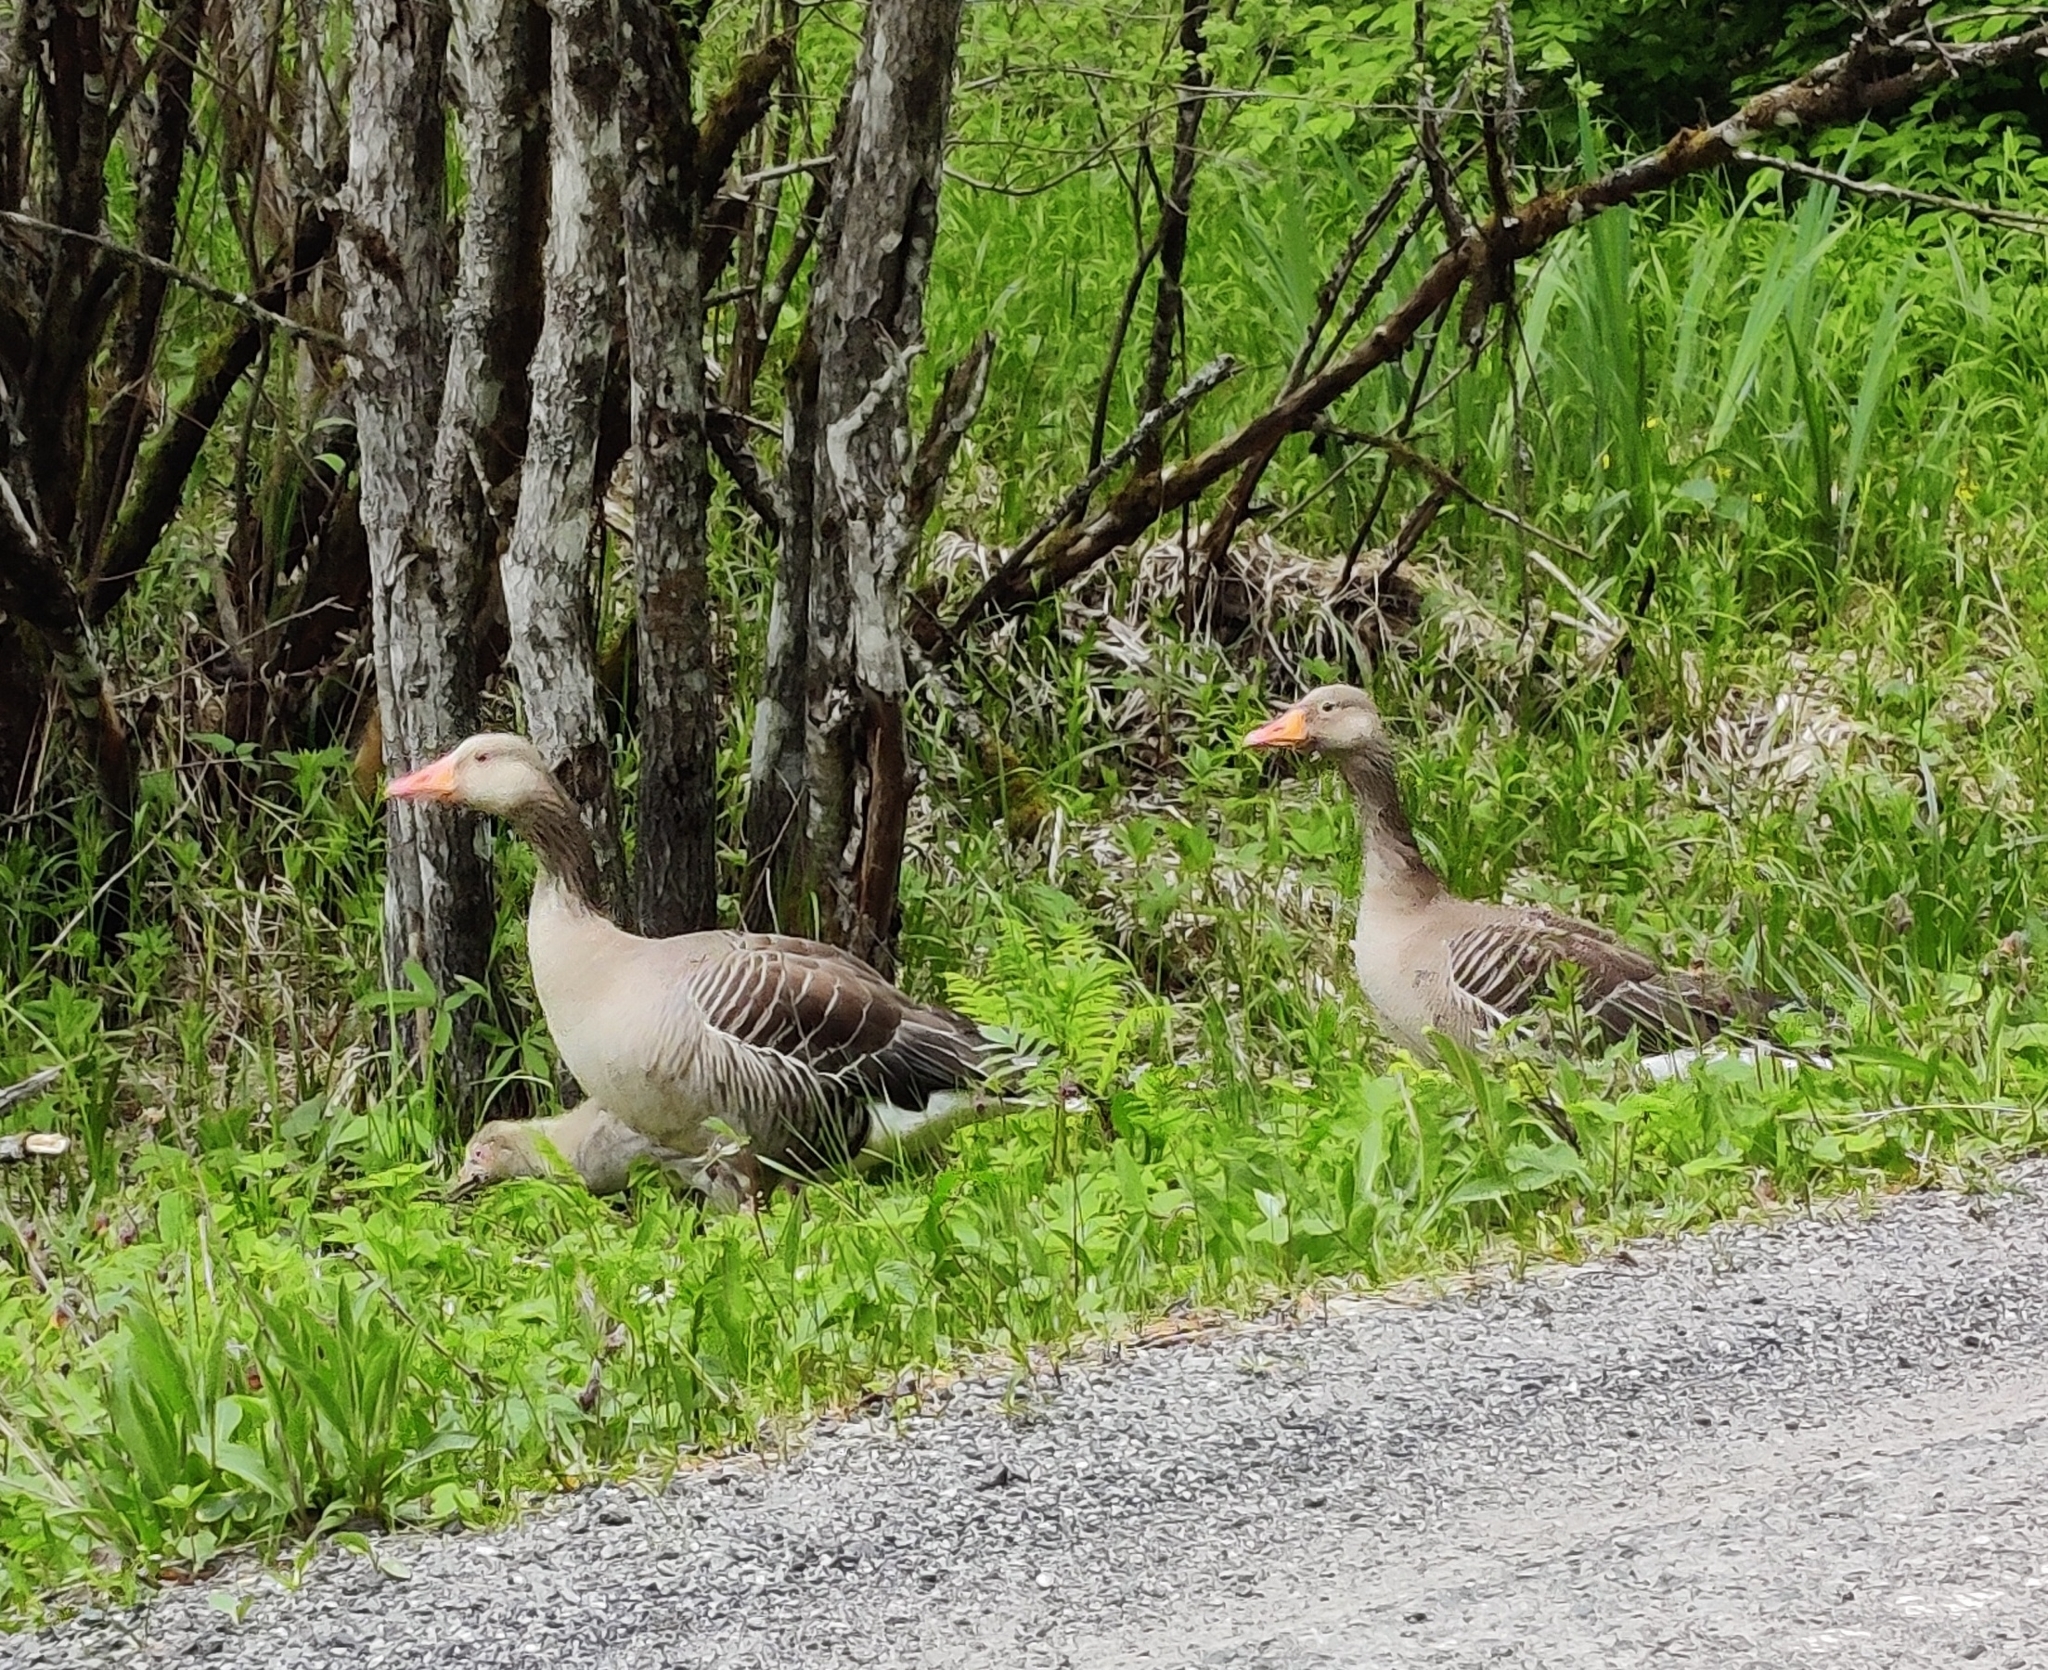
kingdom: Animalia
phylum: Chordata
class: Aves
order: Anseriformes
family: Anatidae
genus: Anser
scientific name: Anser anser
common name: Greylag goose
